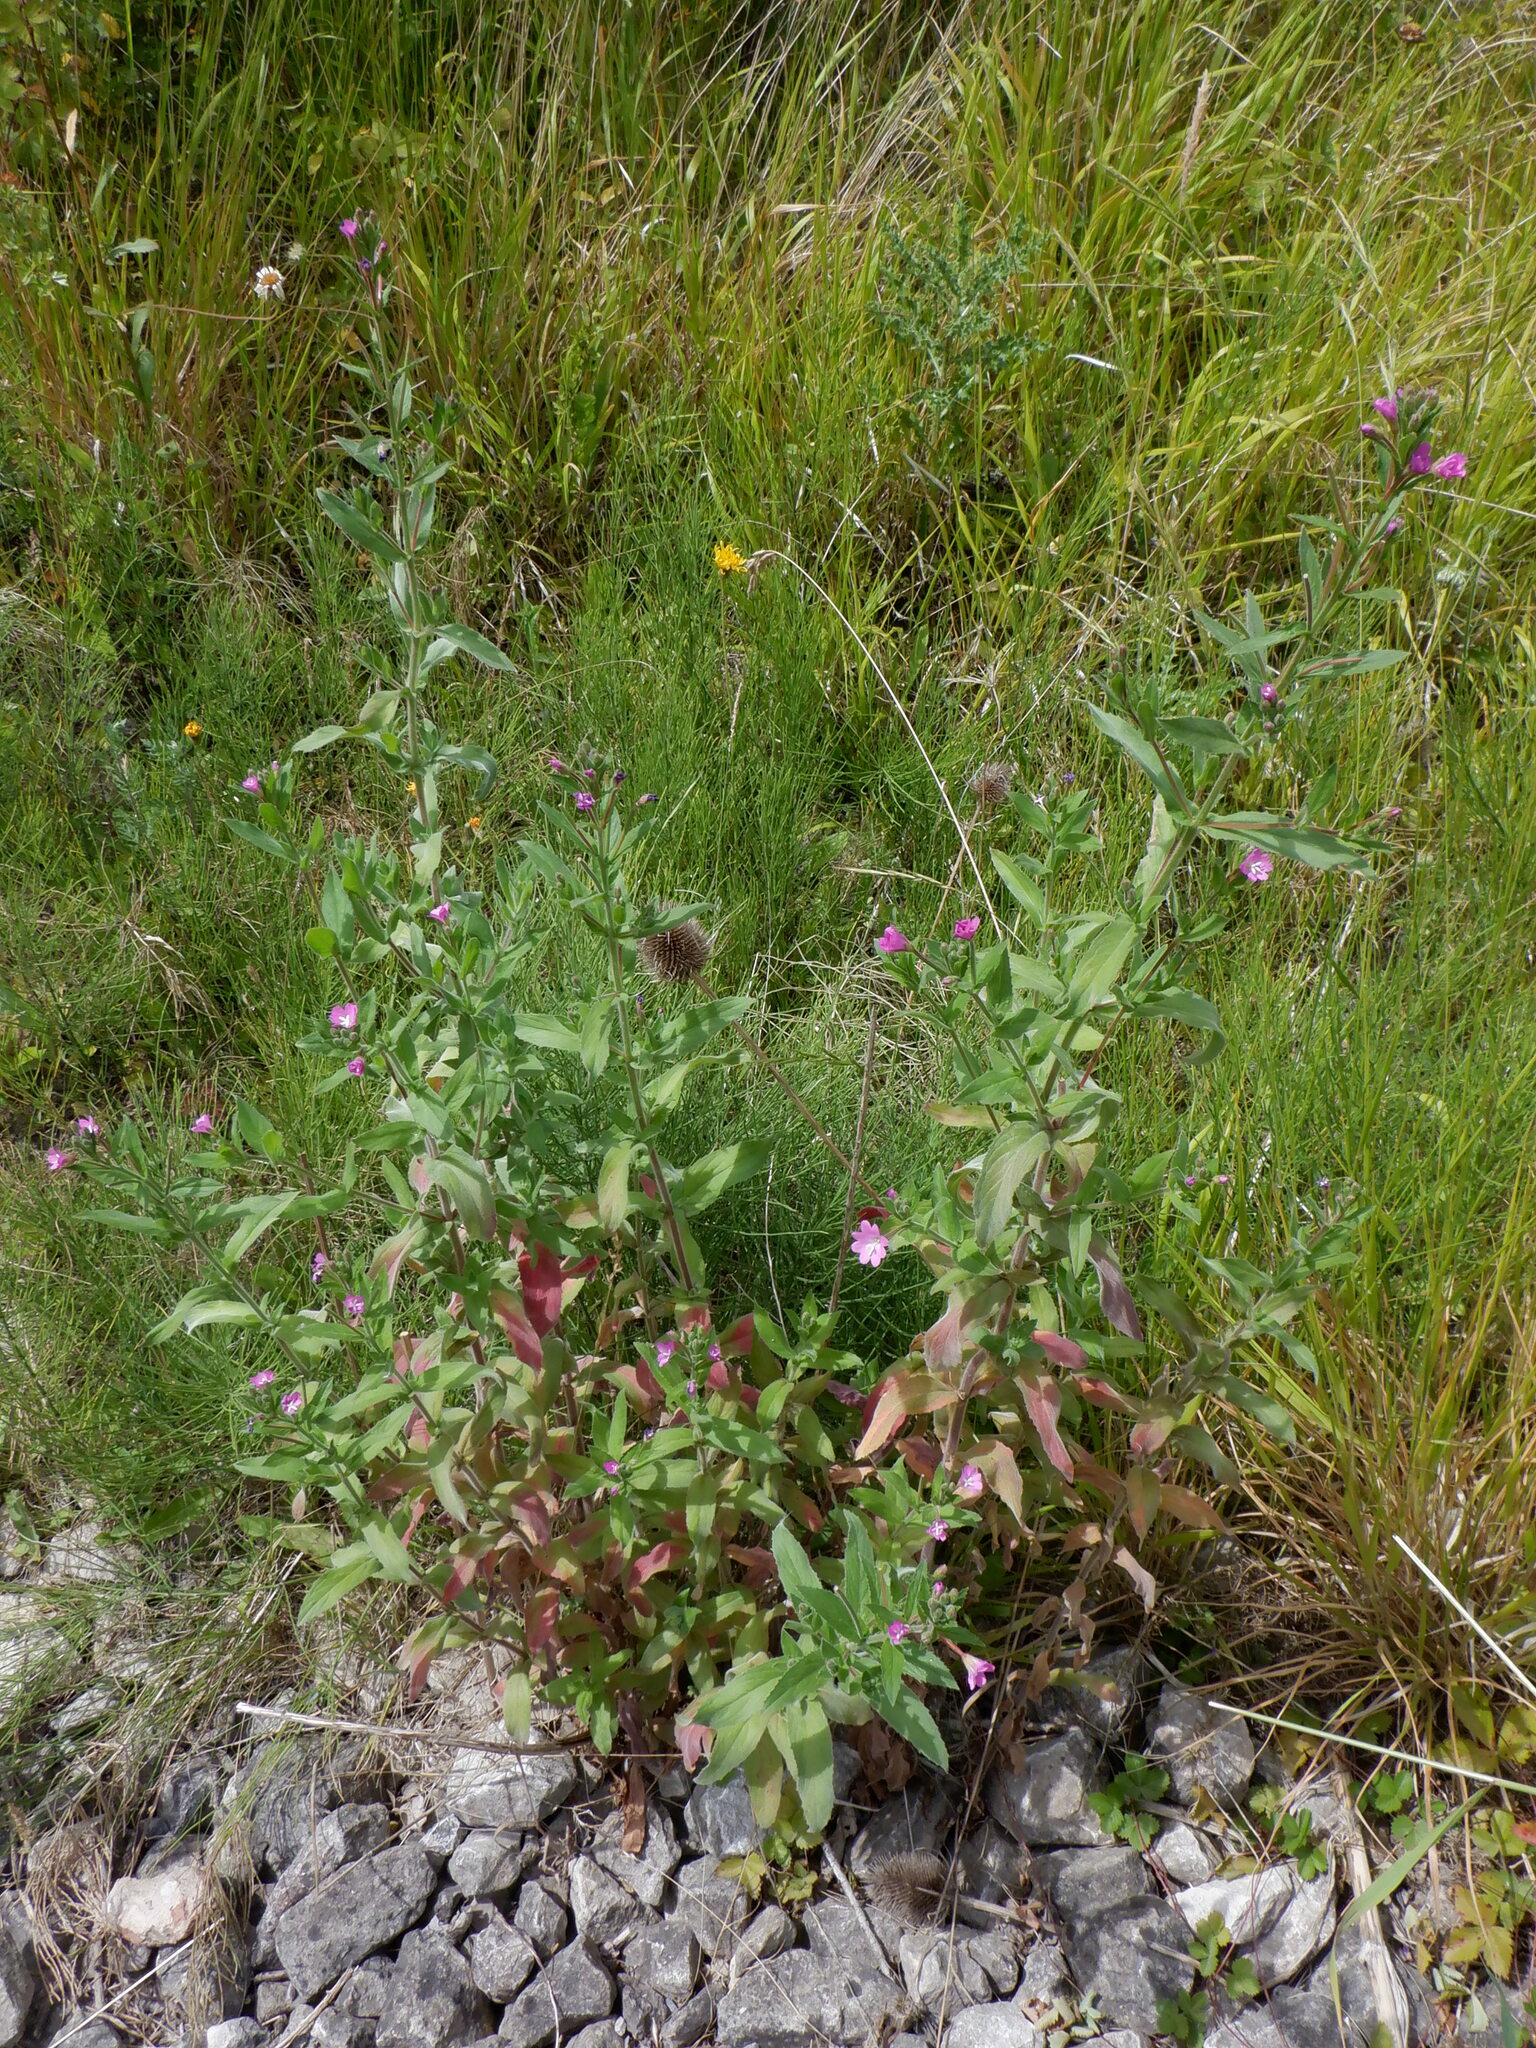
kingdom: Plantae
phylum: Tracheophyta
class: Magnoliopsida
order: Myrtales
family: Onagraceae
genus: Epilobium
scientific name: Epilobium hirsutum
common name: Great willowherb
